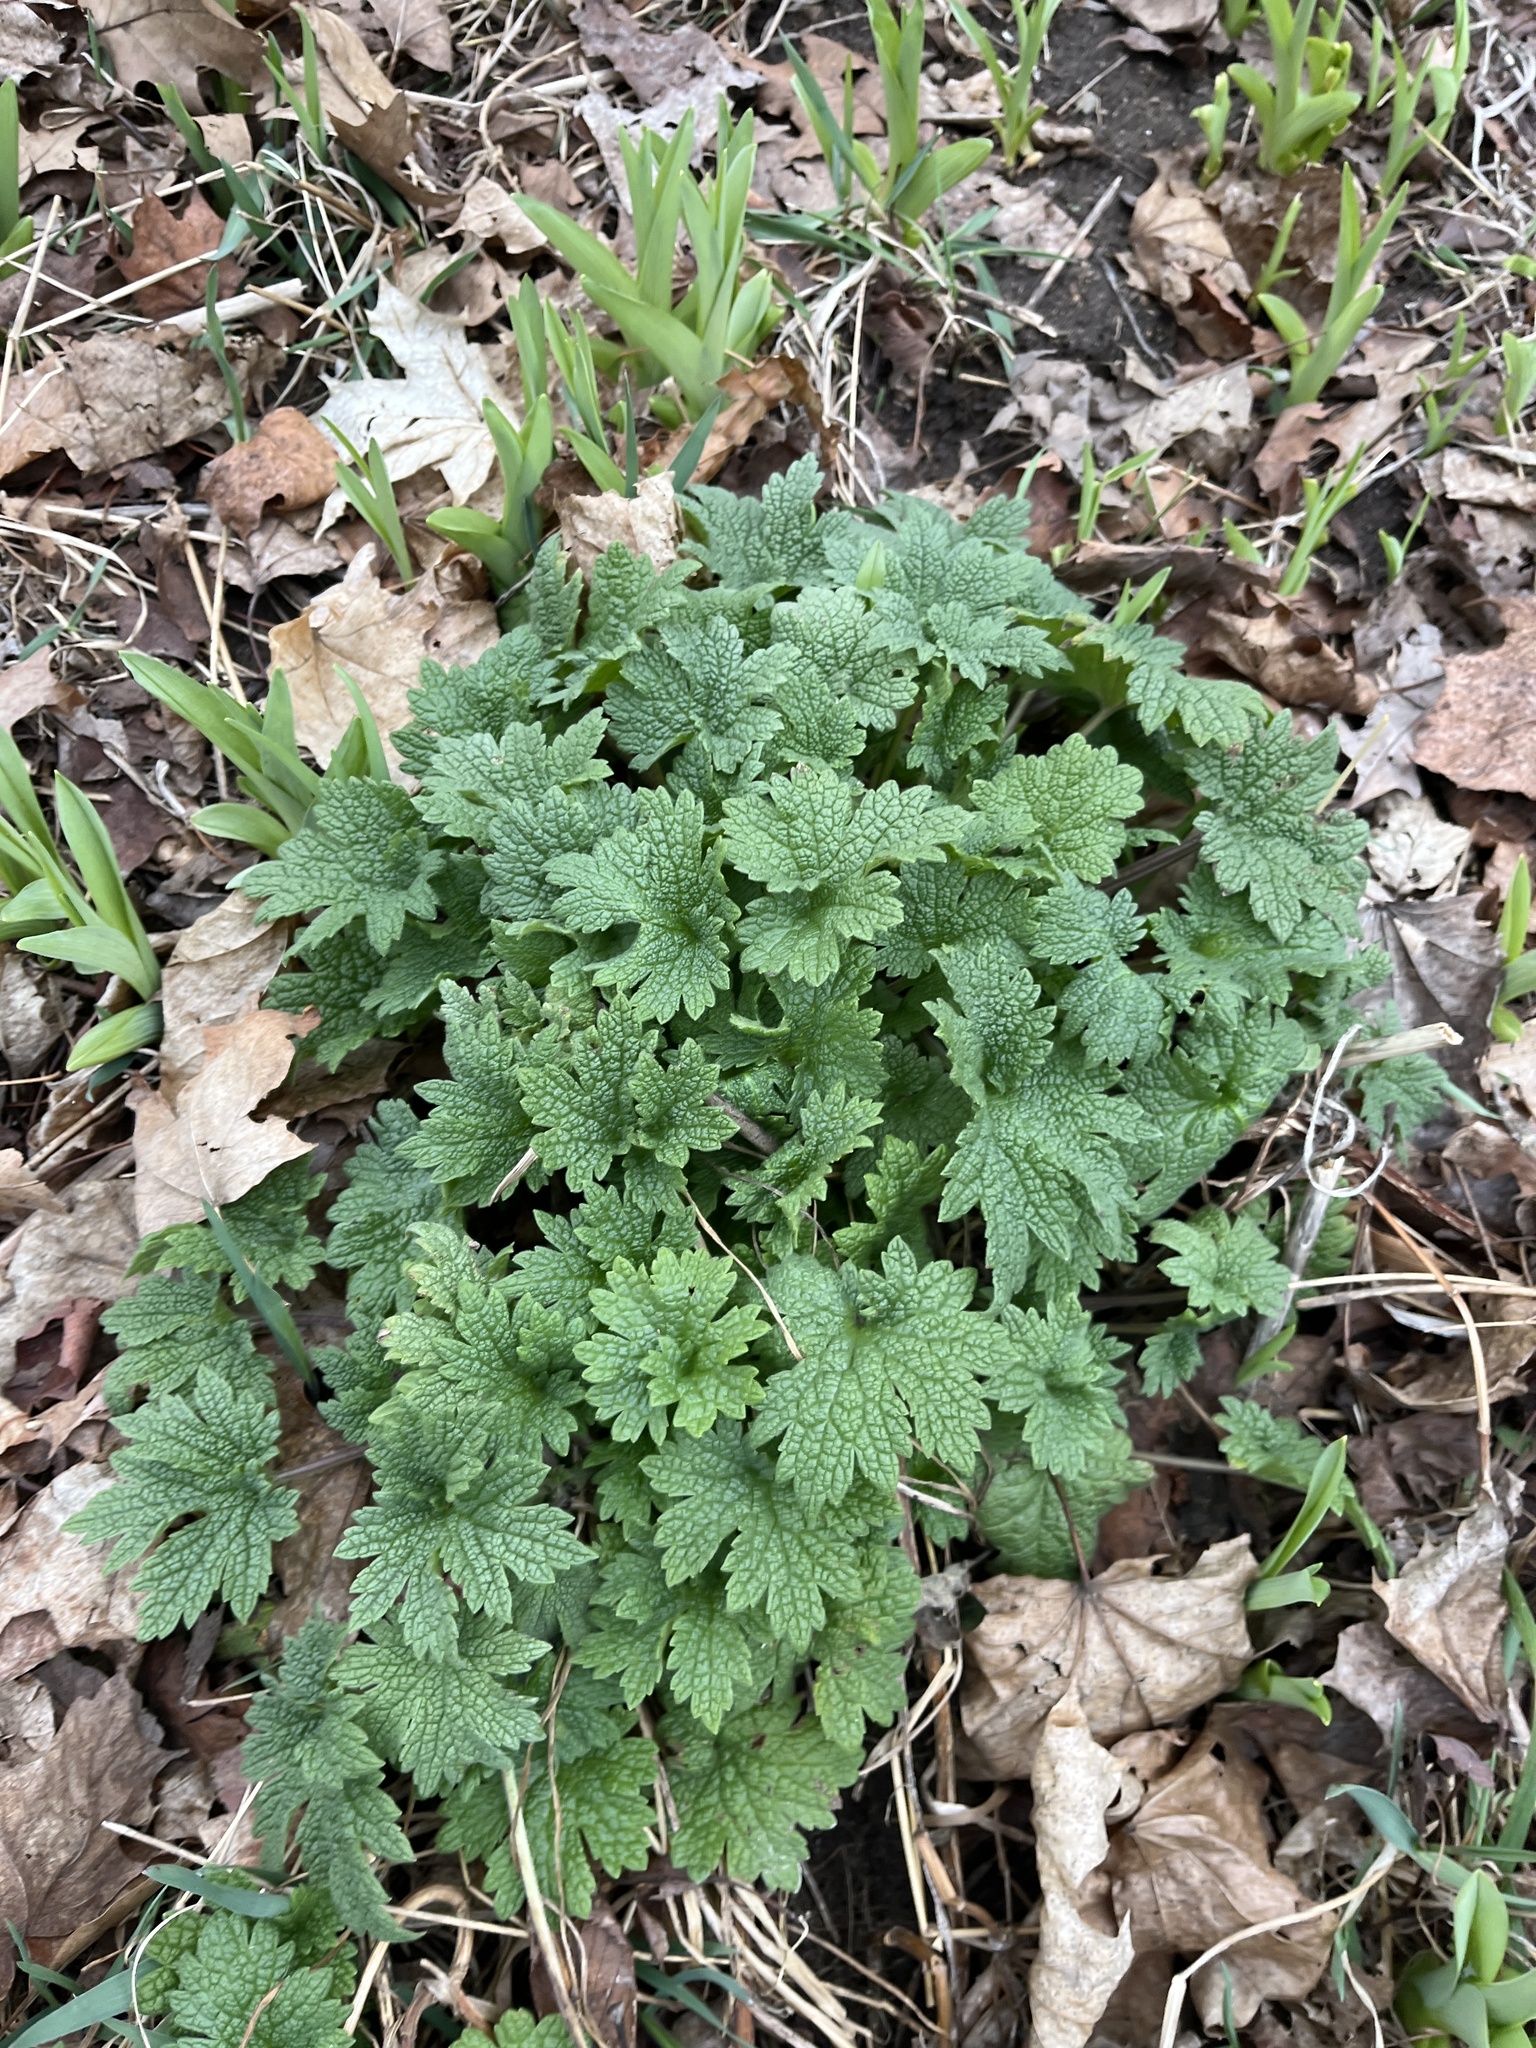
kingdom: Plantae
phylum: Tracheophyta
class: Magnoliopsida
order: Lamiales
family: Lamiaceae
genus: Leonurus
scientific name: Leonurus cardiaca
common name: Motherwort
